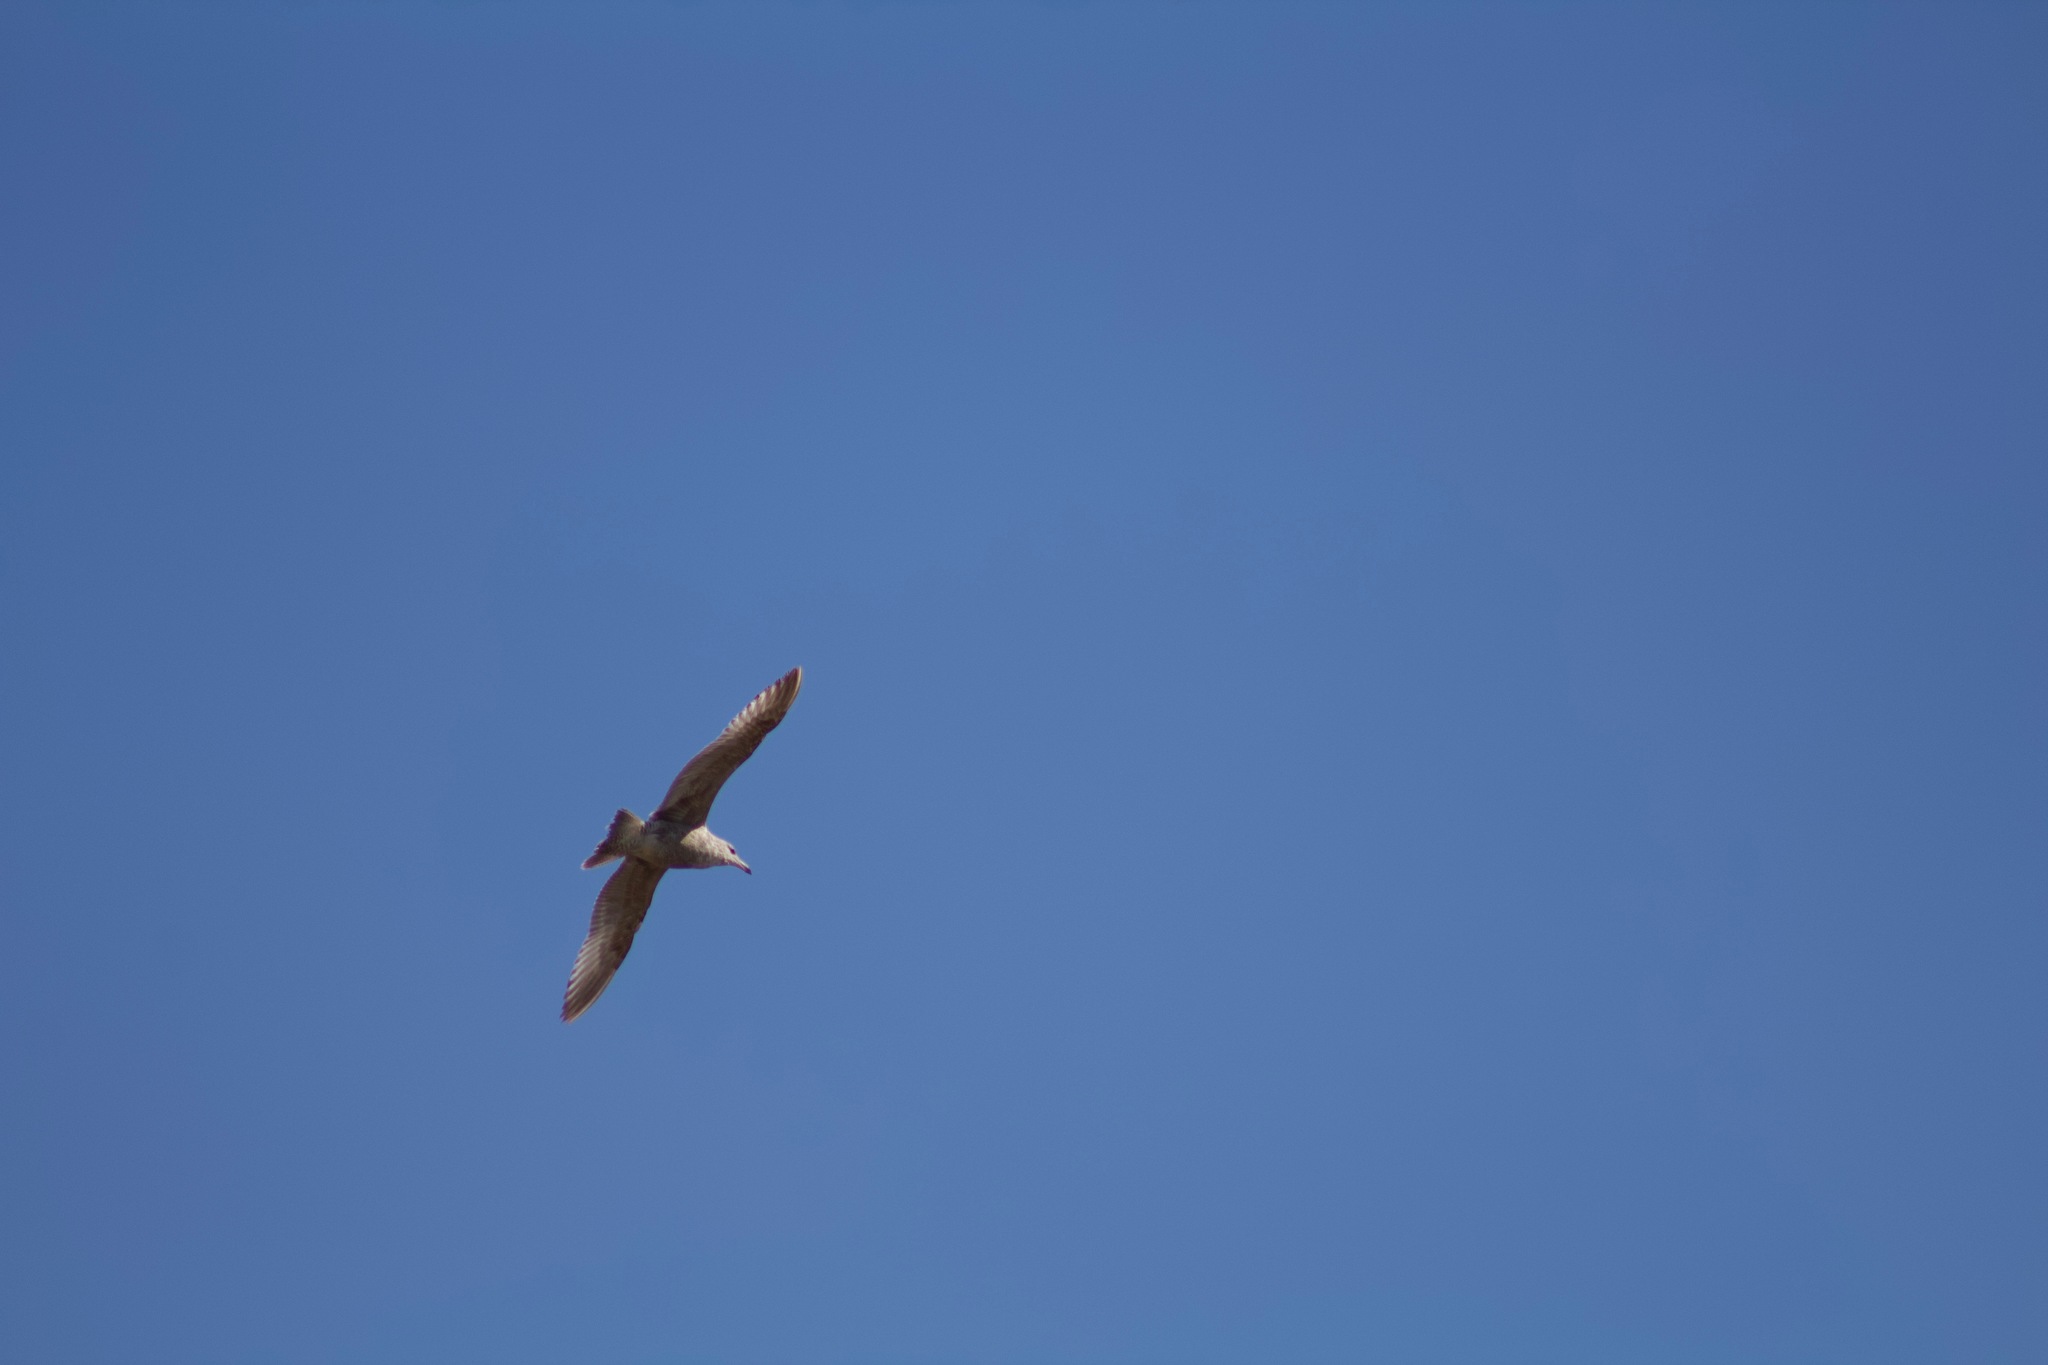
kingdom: Animalia
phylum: Chordata
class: Aves
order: Charadriiformes
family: Laridae
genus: Larus
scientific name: Larus argentatus
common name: Herring gull
